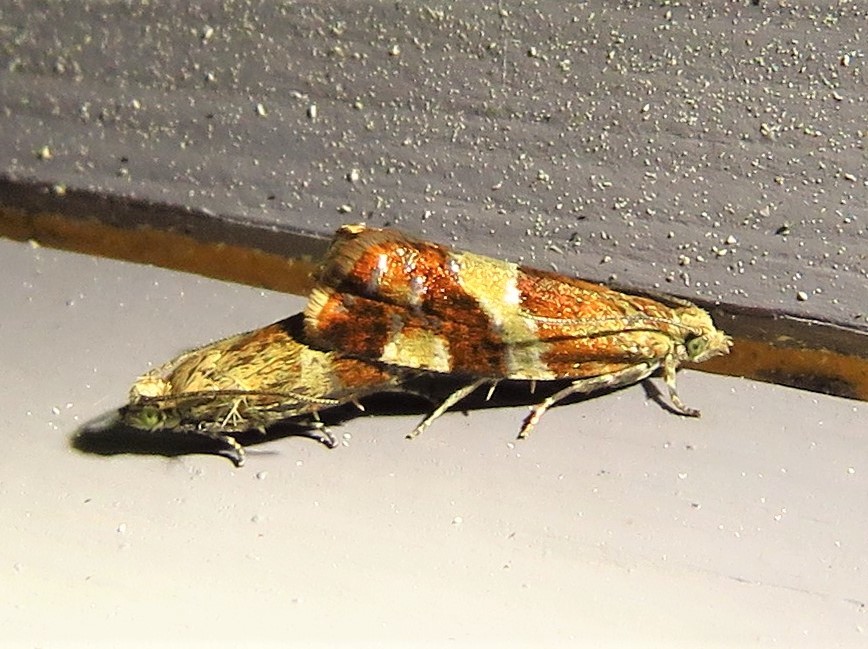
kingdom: Animalia
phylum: Arthropoda
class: Insecta
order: Lepidoptera
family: Tortricidae
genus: Epinotia
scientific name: Epinotia cruciana
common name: Willow tortrix
